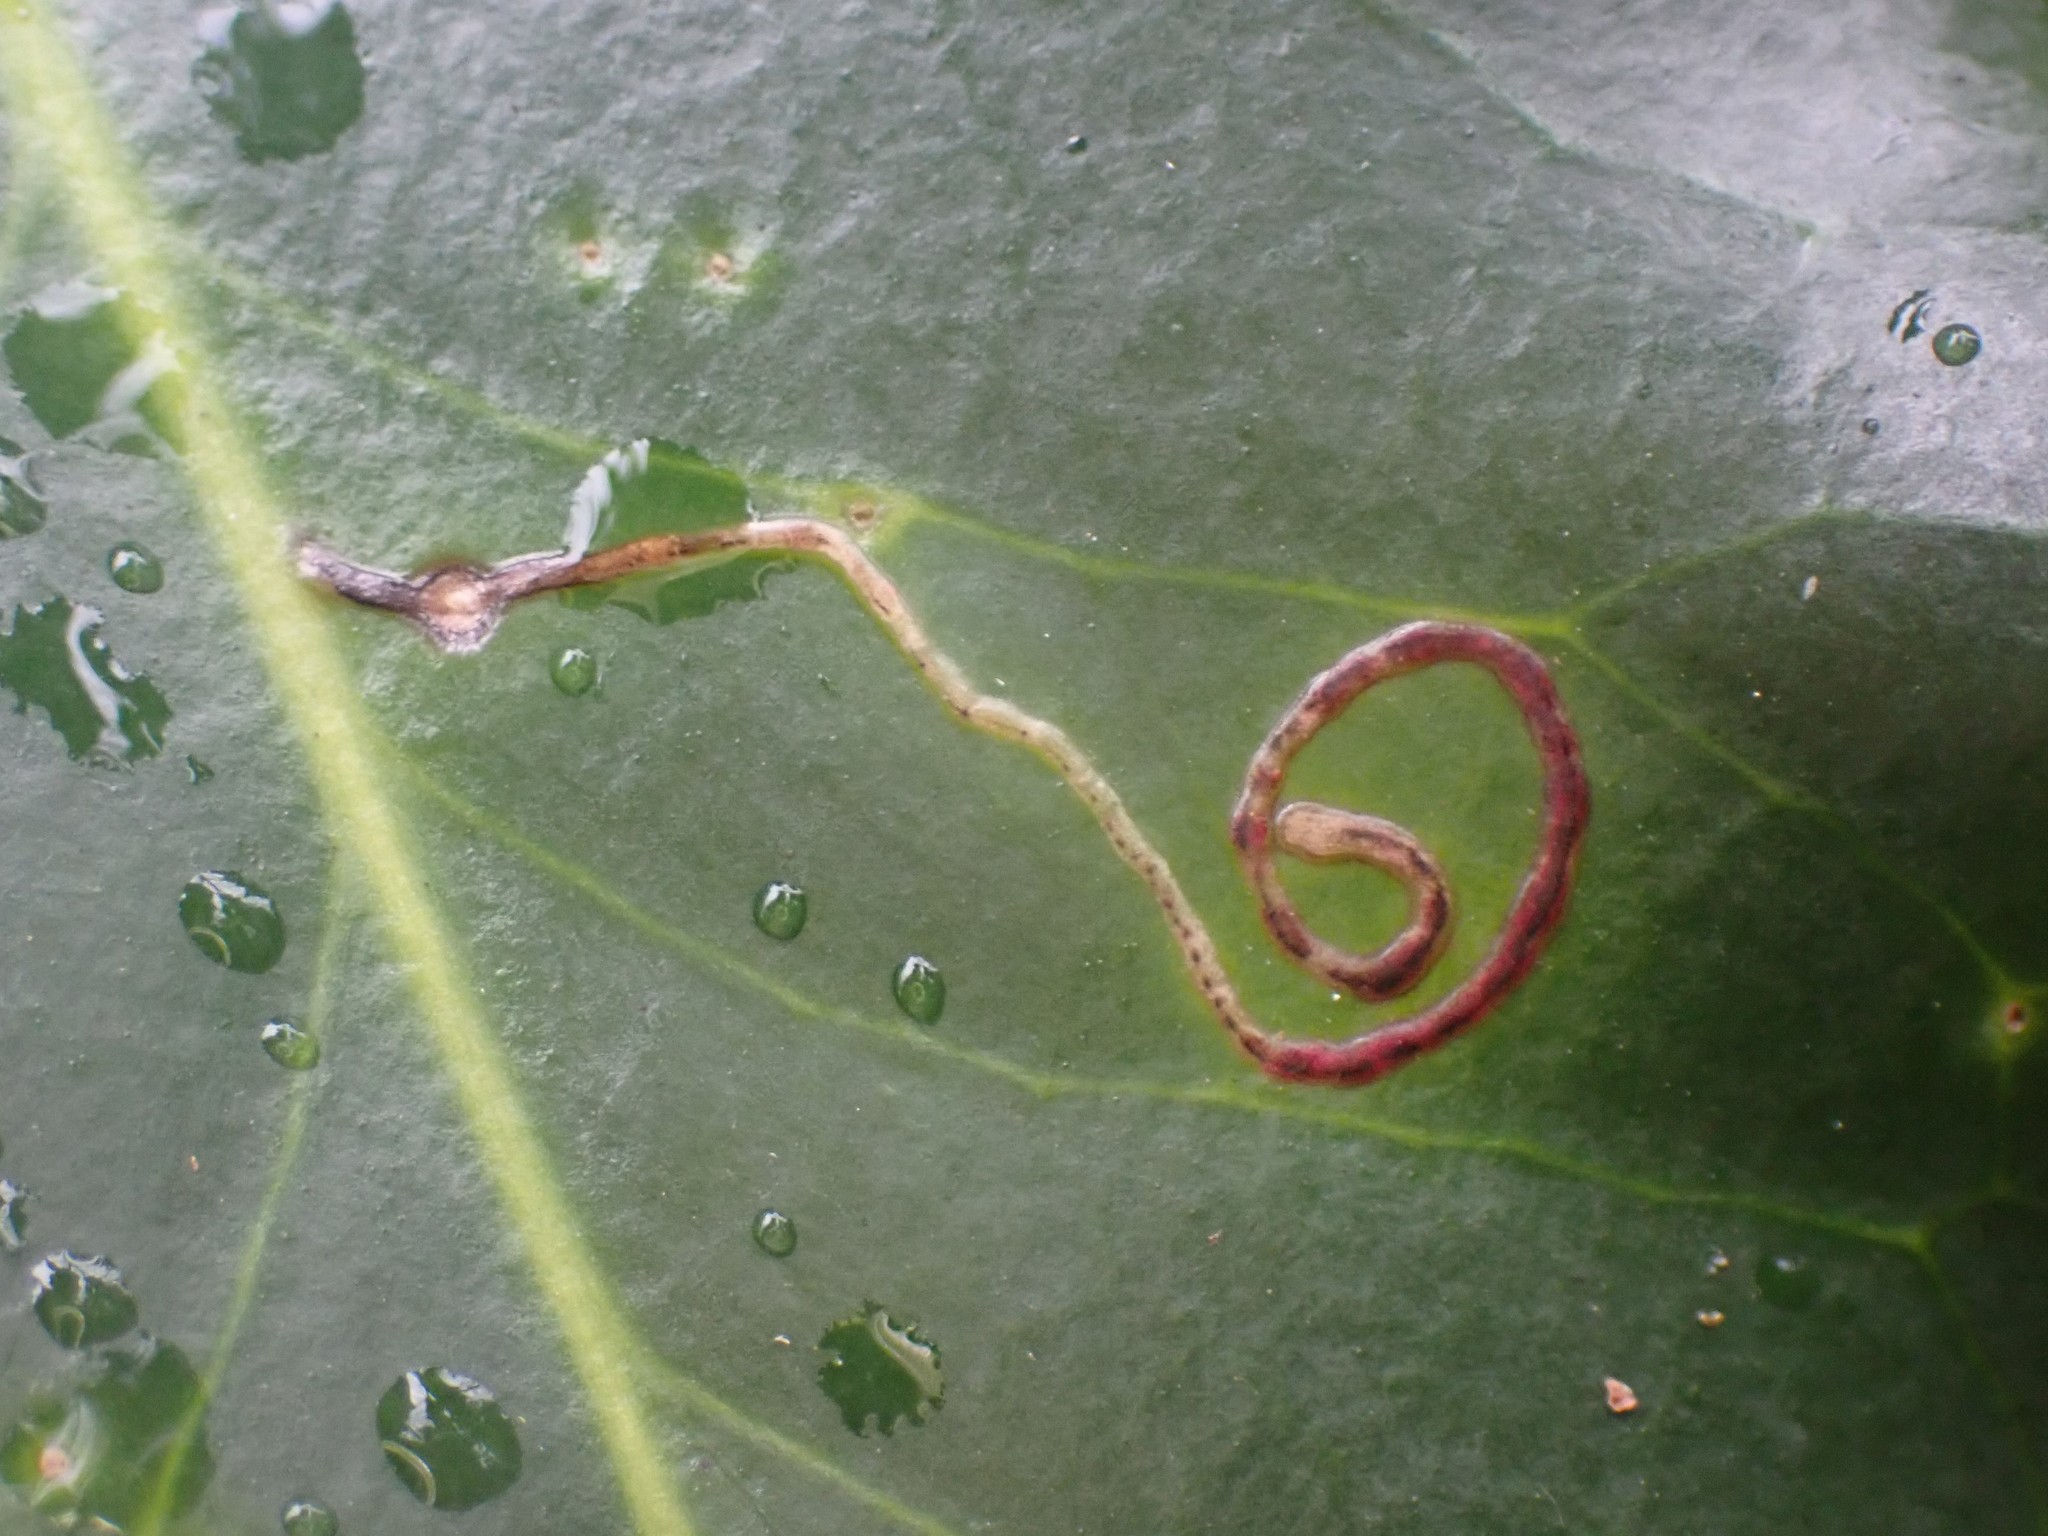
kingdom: Animalia
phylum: Arthropoda
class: Insecta
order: Diptera
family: Agromyzidae
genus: Phytomyza
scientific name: Phytomyza ilicis
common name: Holly leafminer
